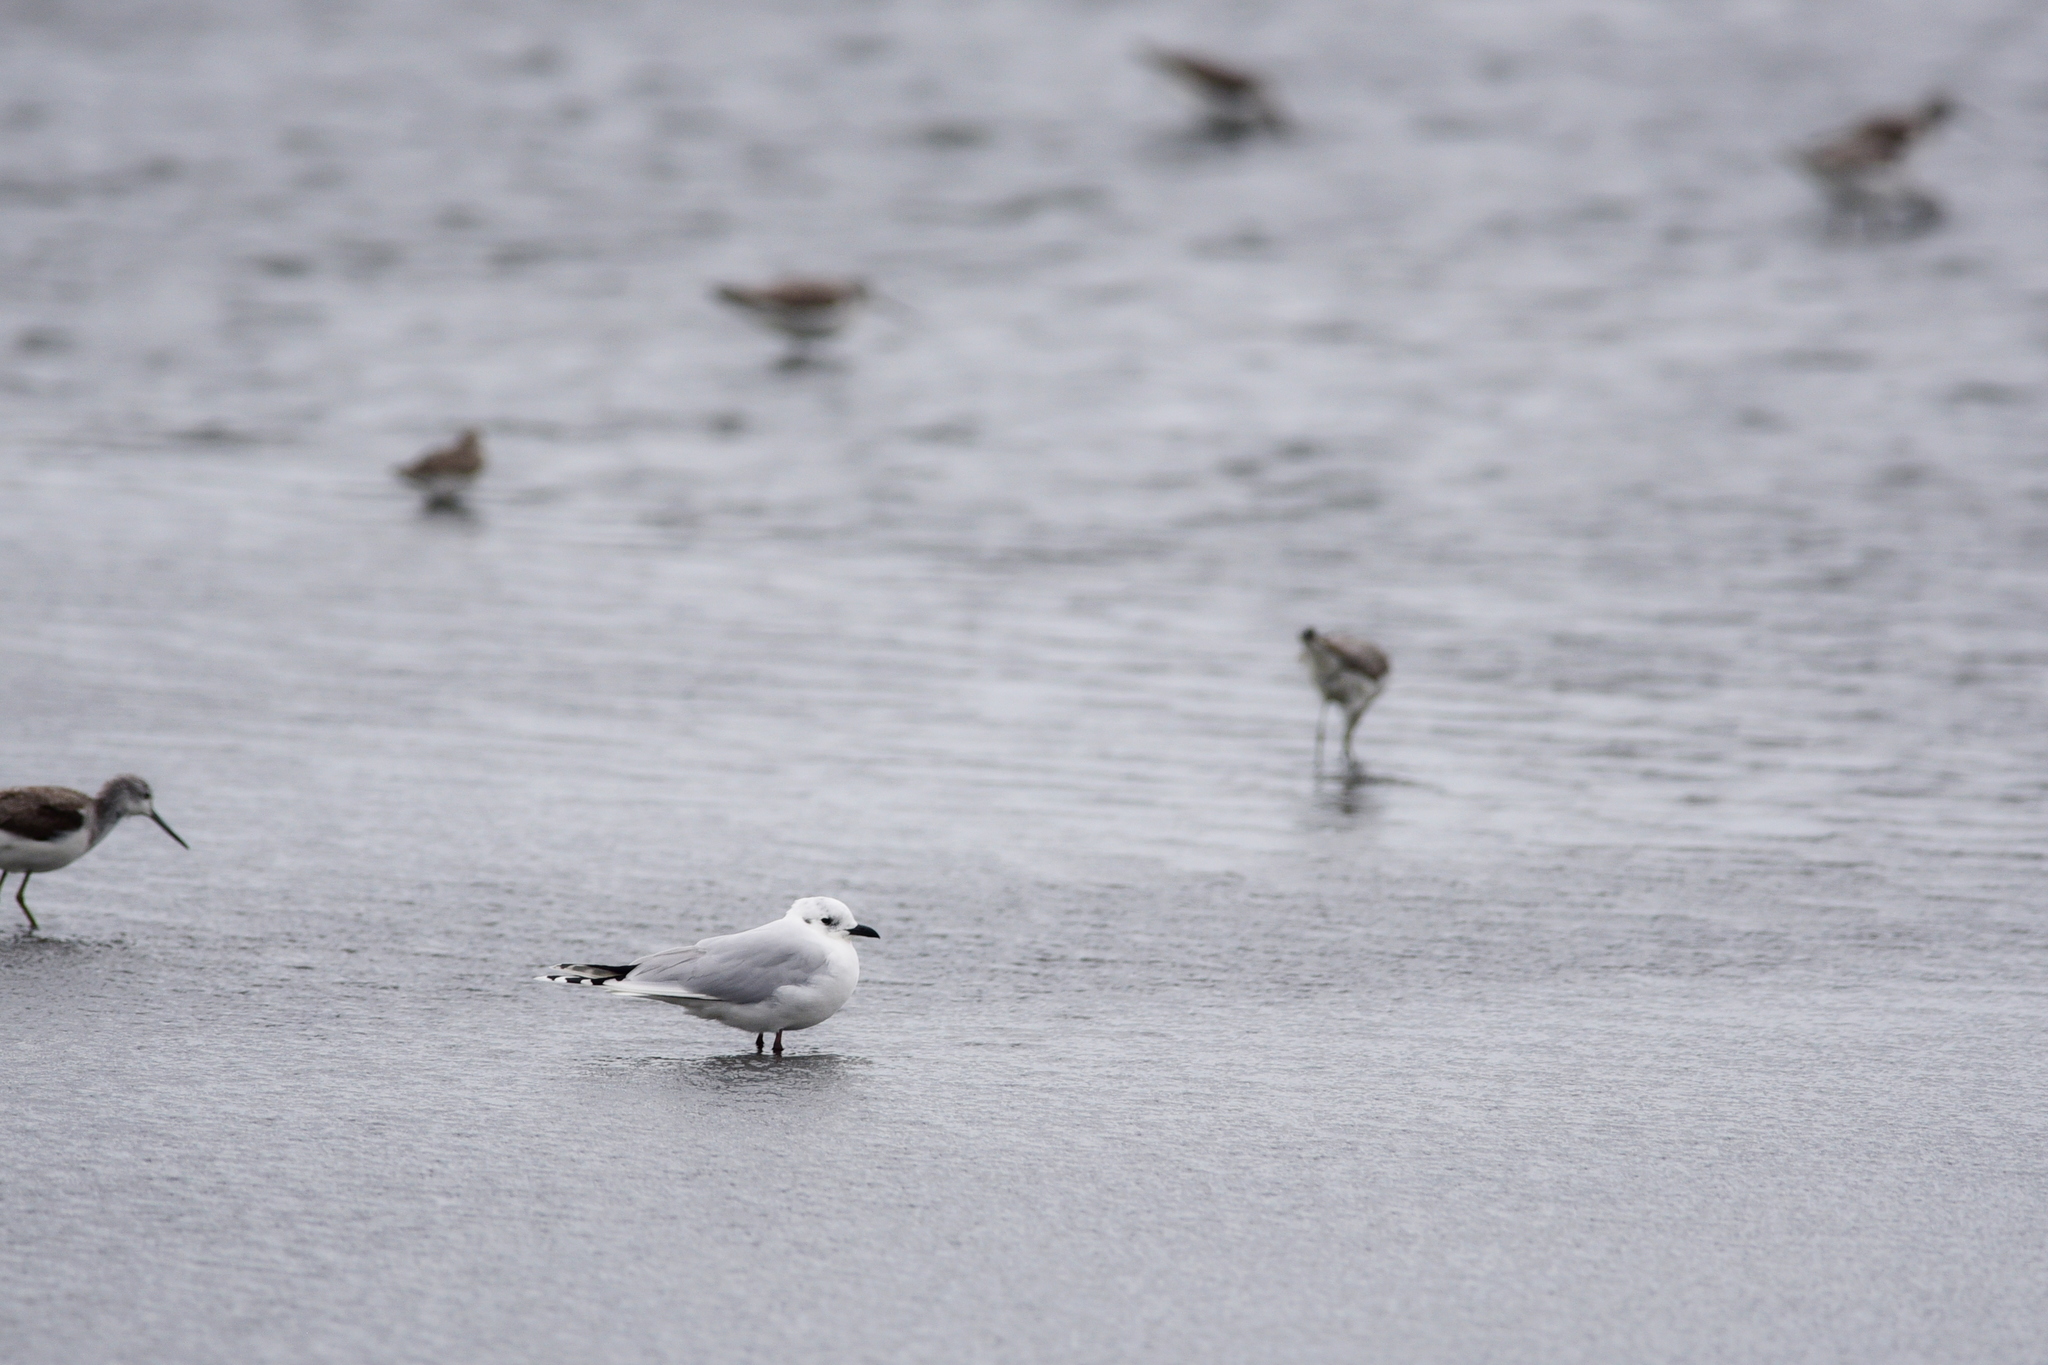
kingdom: Animalia
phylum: Chordata
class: Aves
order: Charadriiformes
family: Laridae
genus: Chroicocephalus
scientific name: Chroicocephalus saundersi
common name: Saunders's gull
